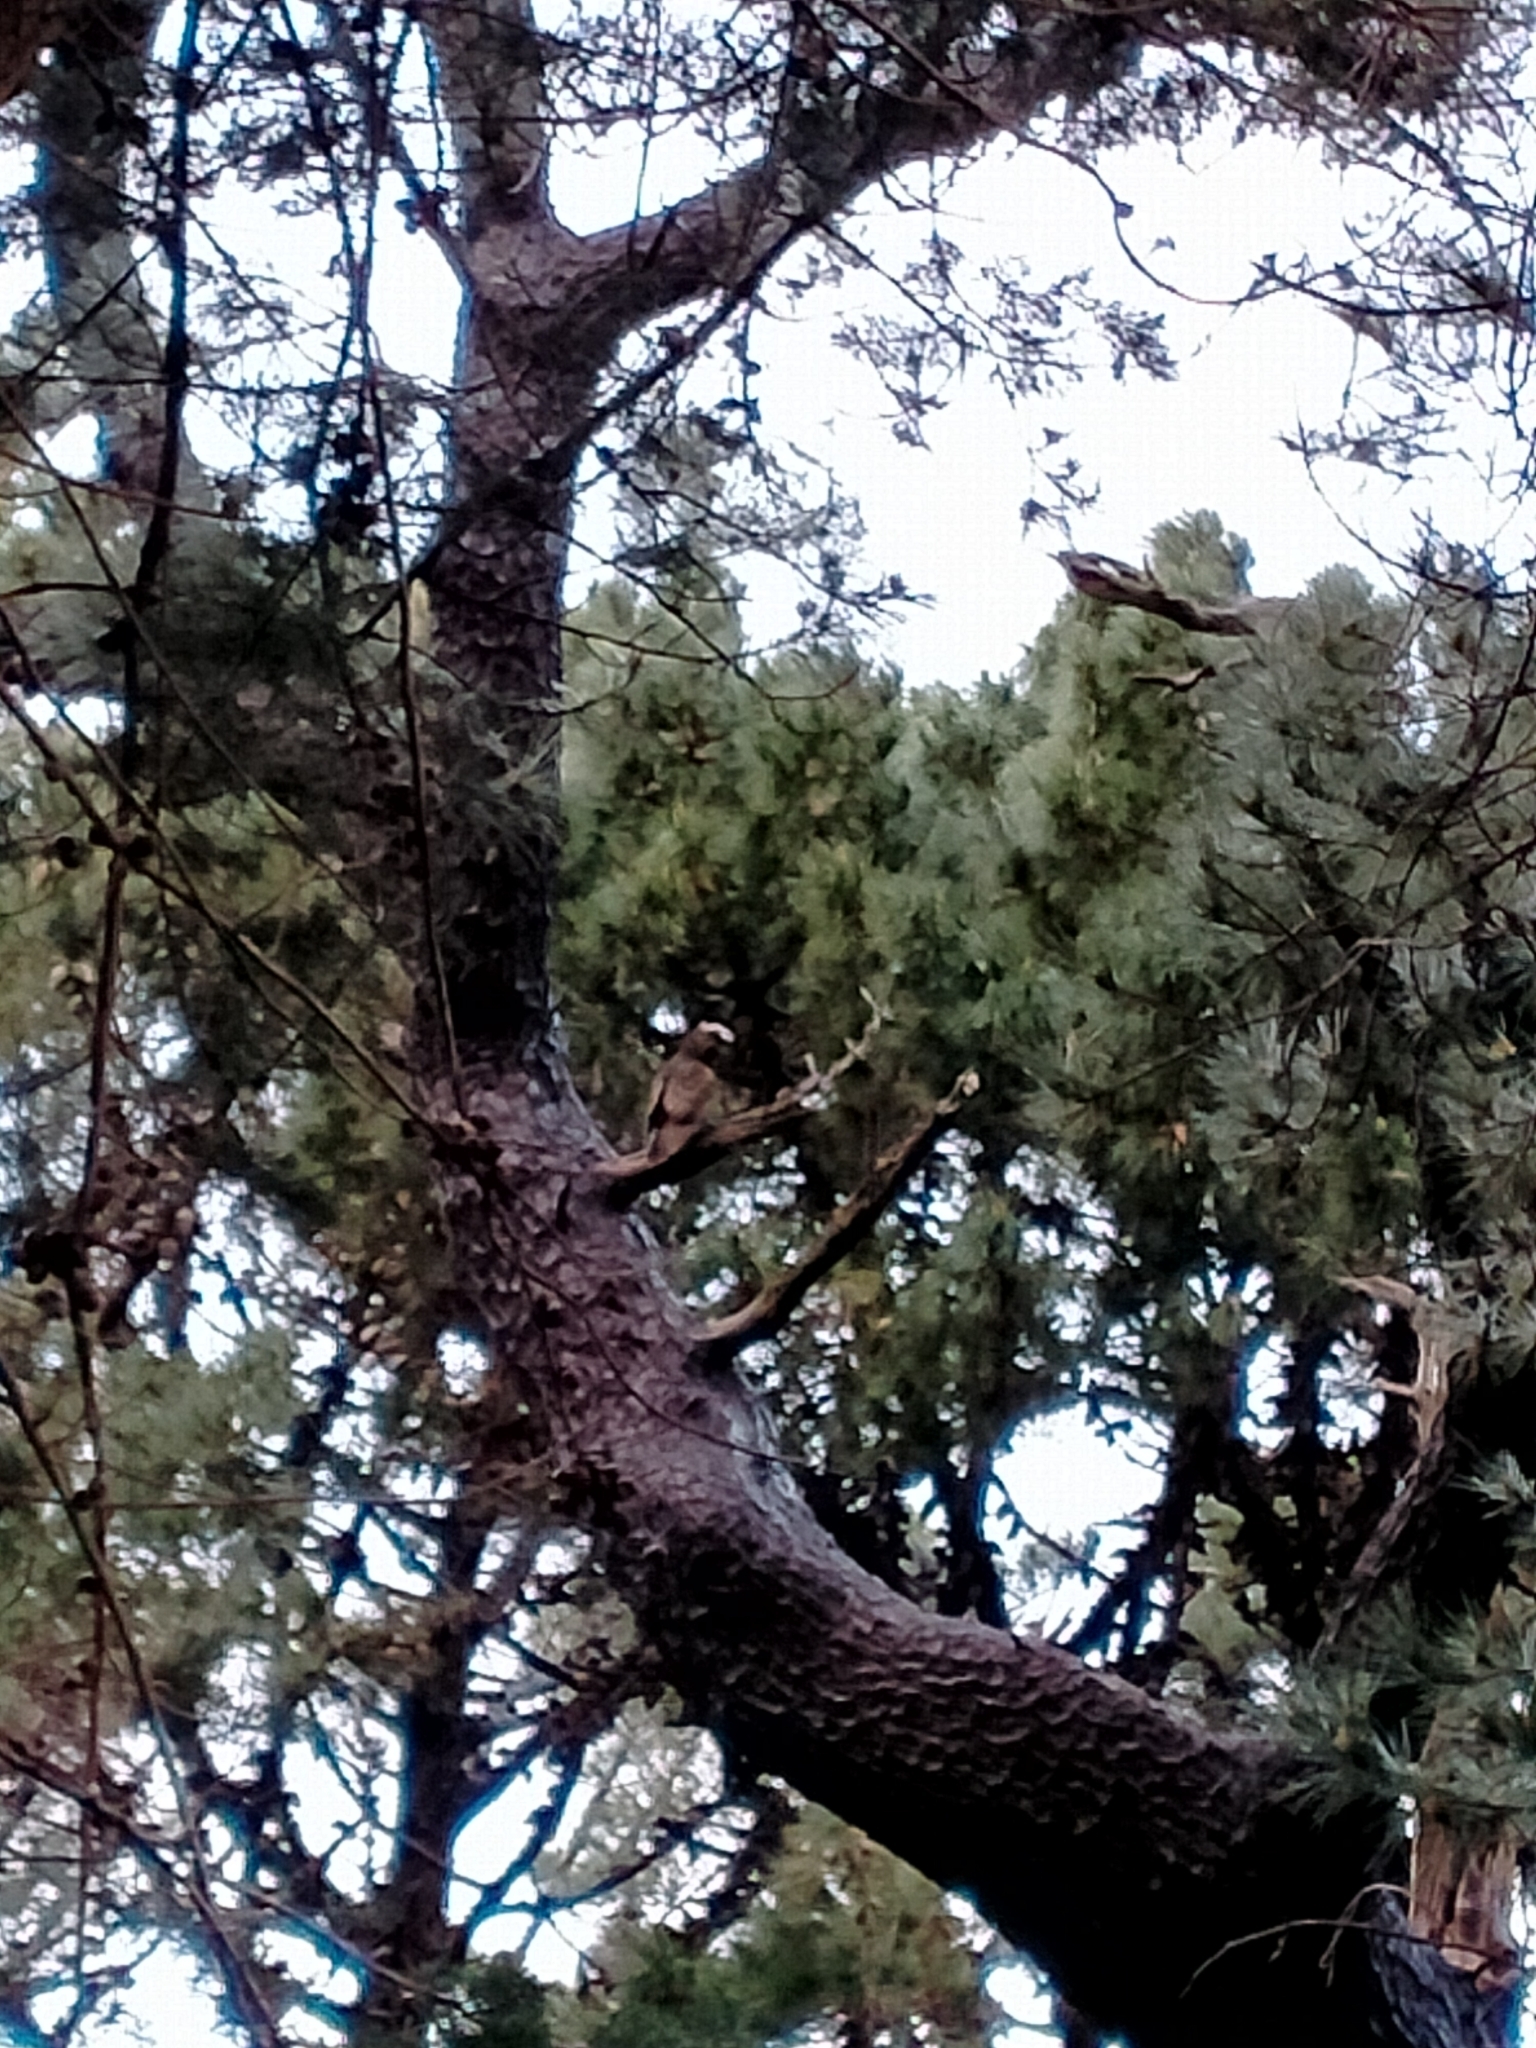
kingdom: Animalia
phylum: Chordata
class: Aves
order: Psittaciformes
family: Psittacidae
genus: Nestor
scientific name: Nestor meridionalis
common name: New zealand kaka
